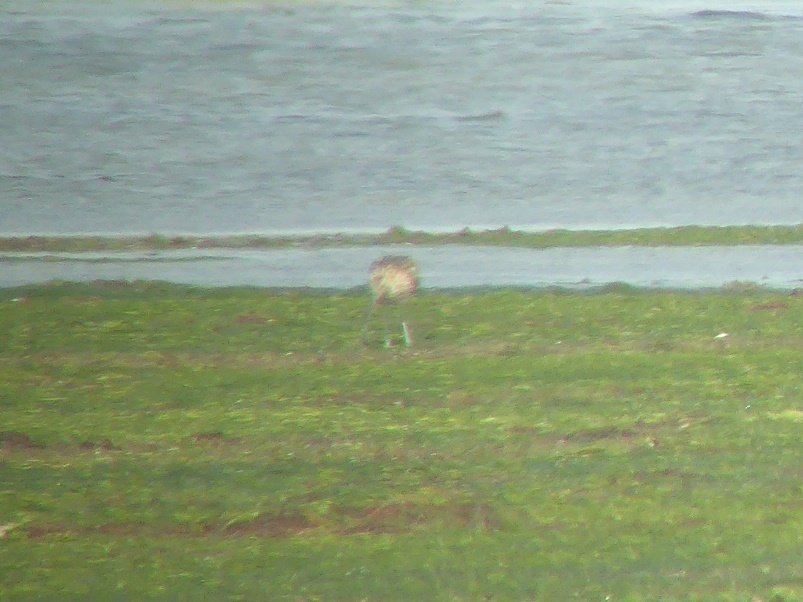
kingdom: Animalia
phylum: Chordata
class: Aves
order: Charadriiformes
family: Scolopacidae
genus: Numenius
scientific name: Numenius arquata
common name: Eurasian curlew
